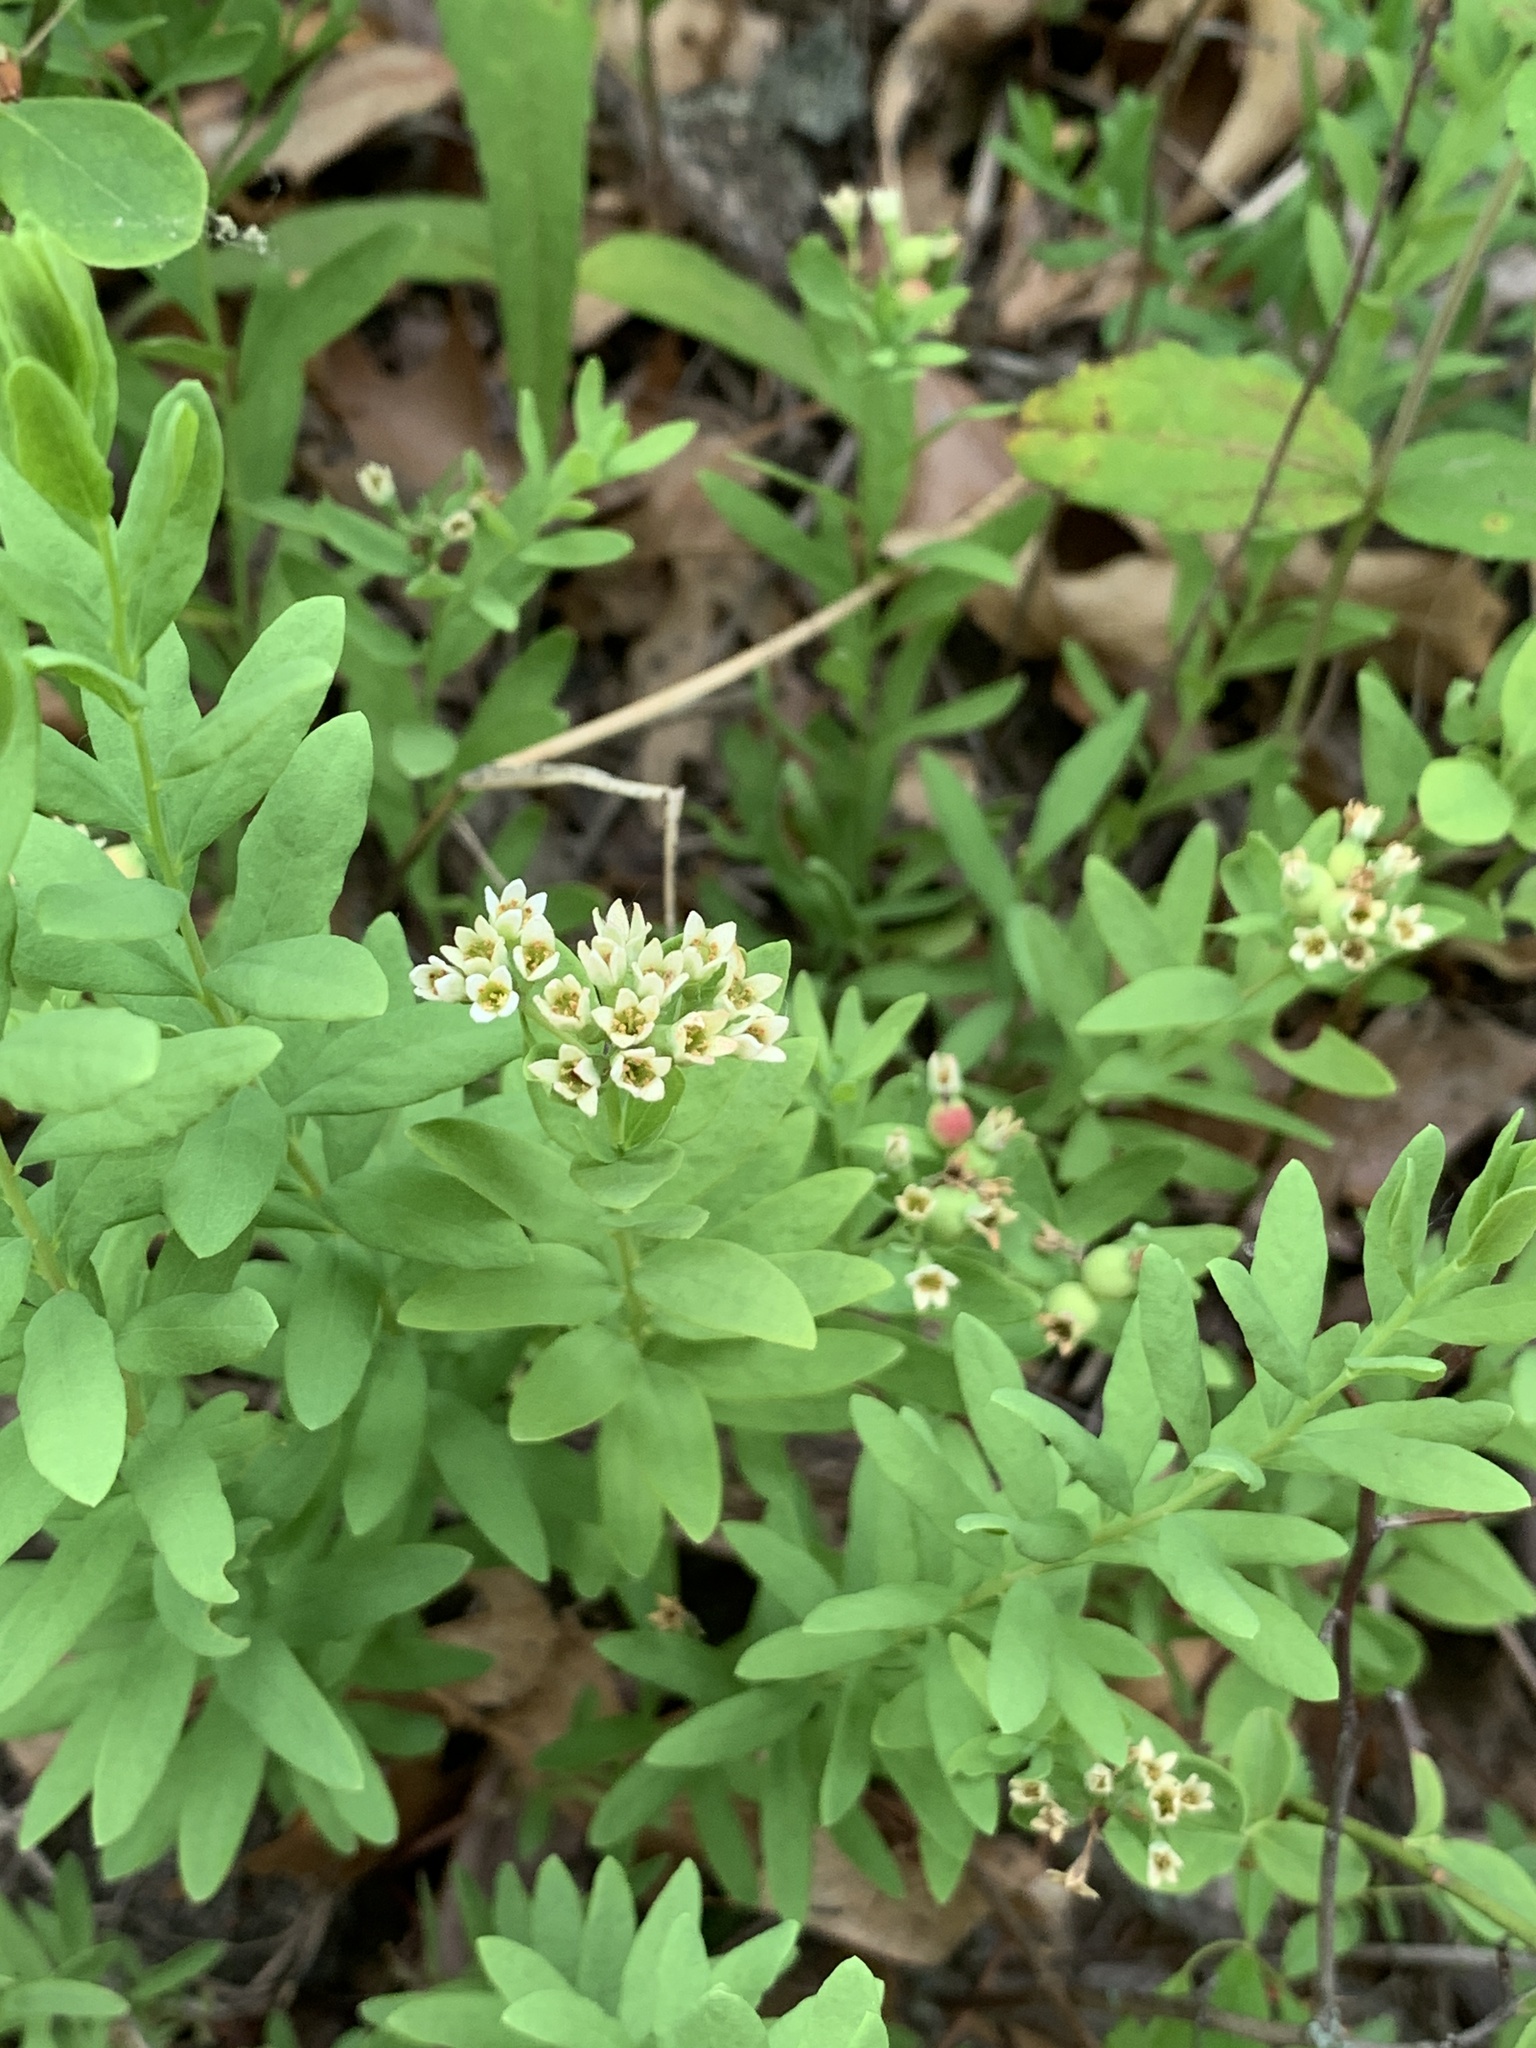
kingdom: Plantae
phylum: Tracheophyta
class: Magnoliopsida
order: Santalales
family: Comandraceae
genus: Comandra
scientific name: Comandra umbellata
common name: Bastard toadflax
